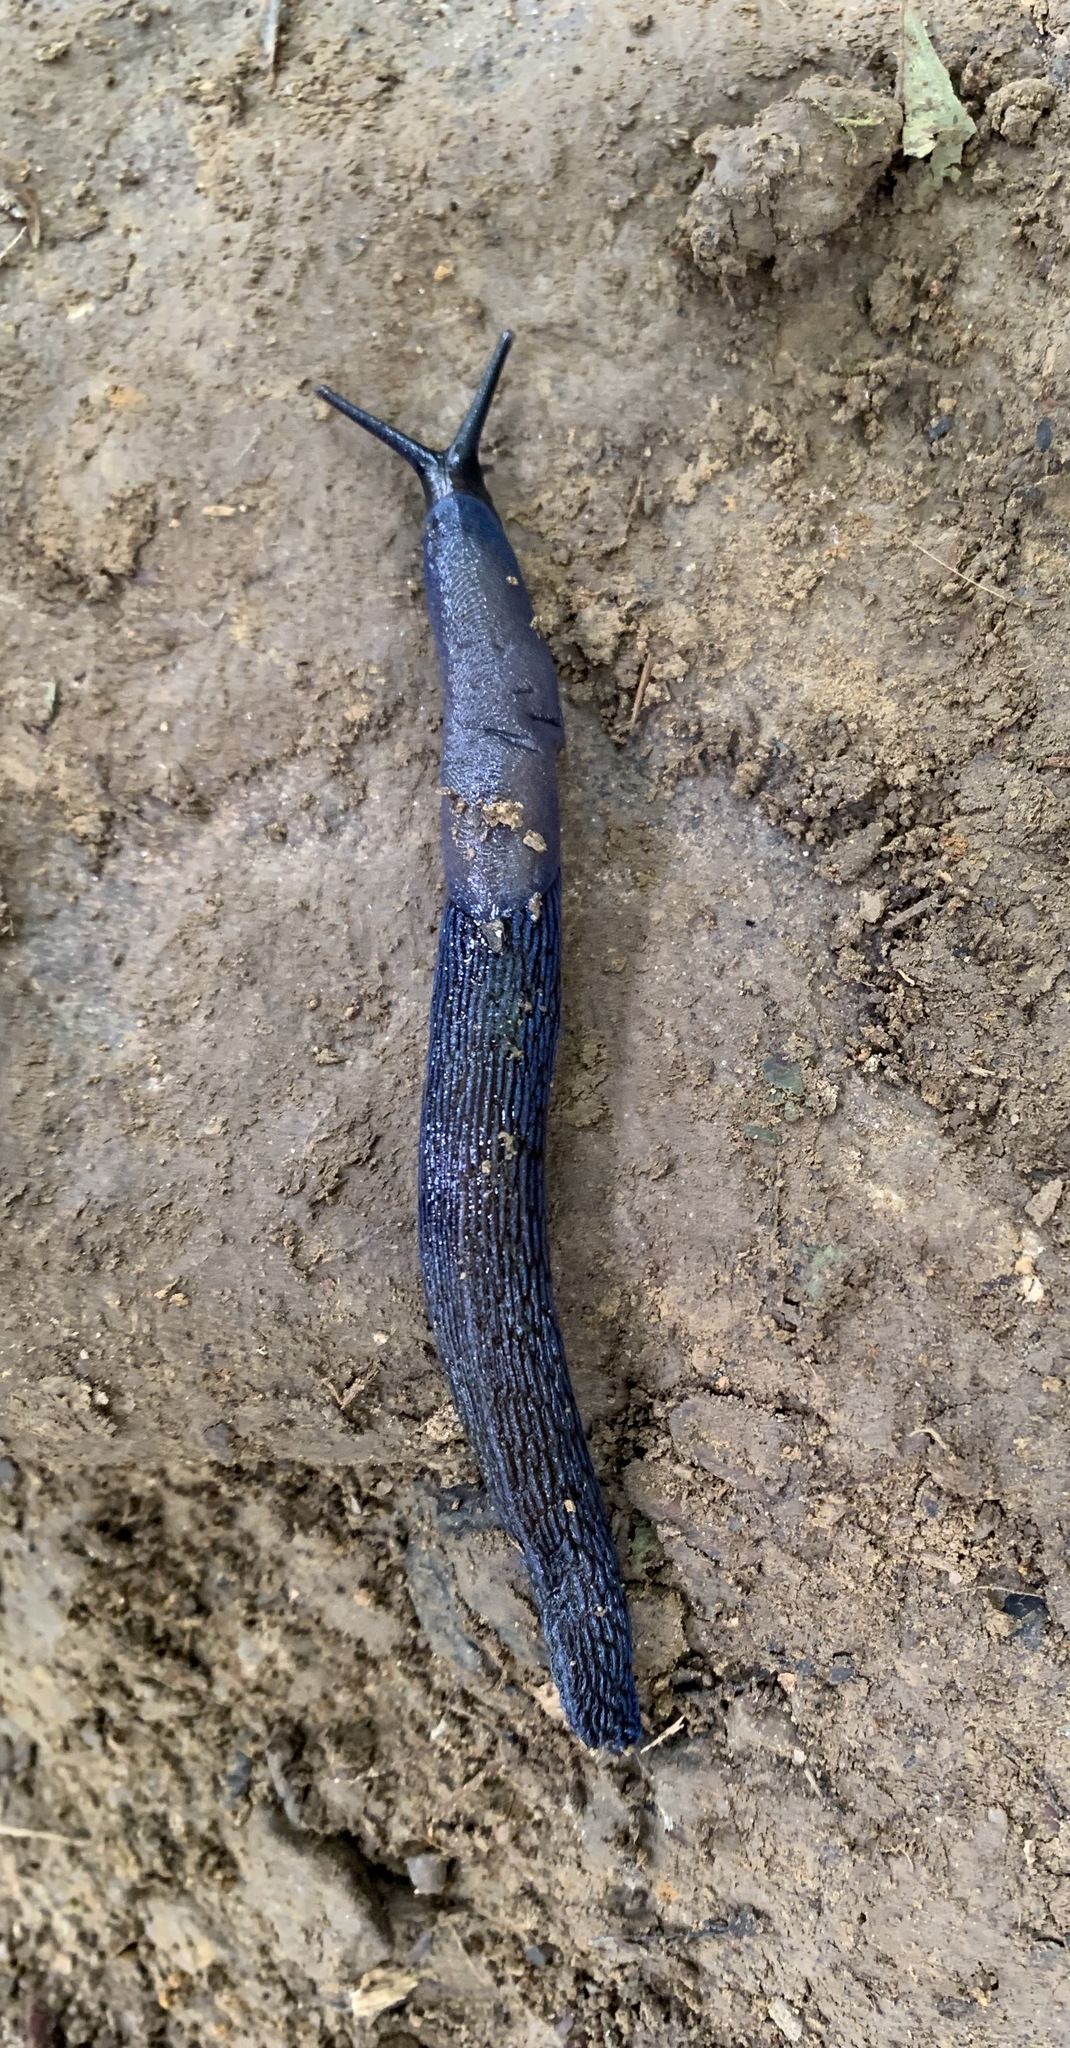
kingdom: Animalia
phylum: Mollusca
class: Gastropoda
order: Stylommatophora
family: Limacidae
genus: Bielzia
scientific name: Bielzia coerulans
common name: Carpathian blue slug
